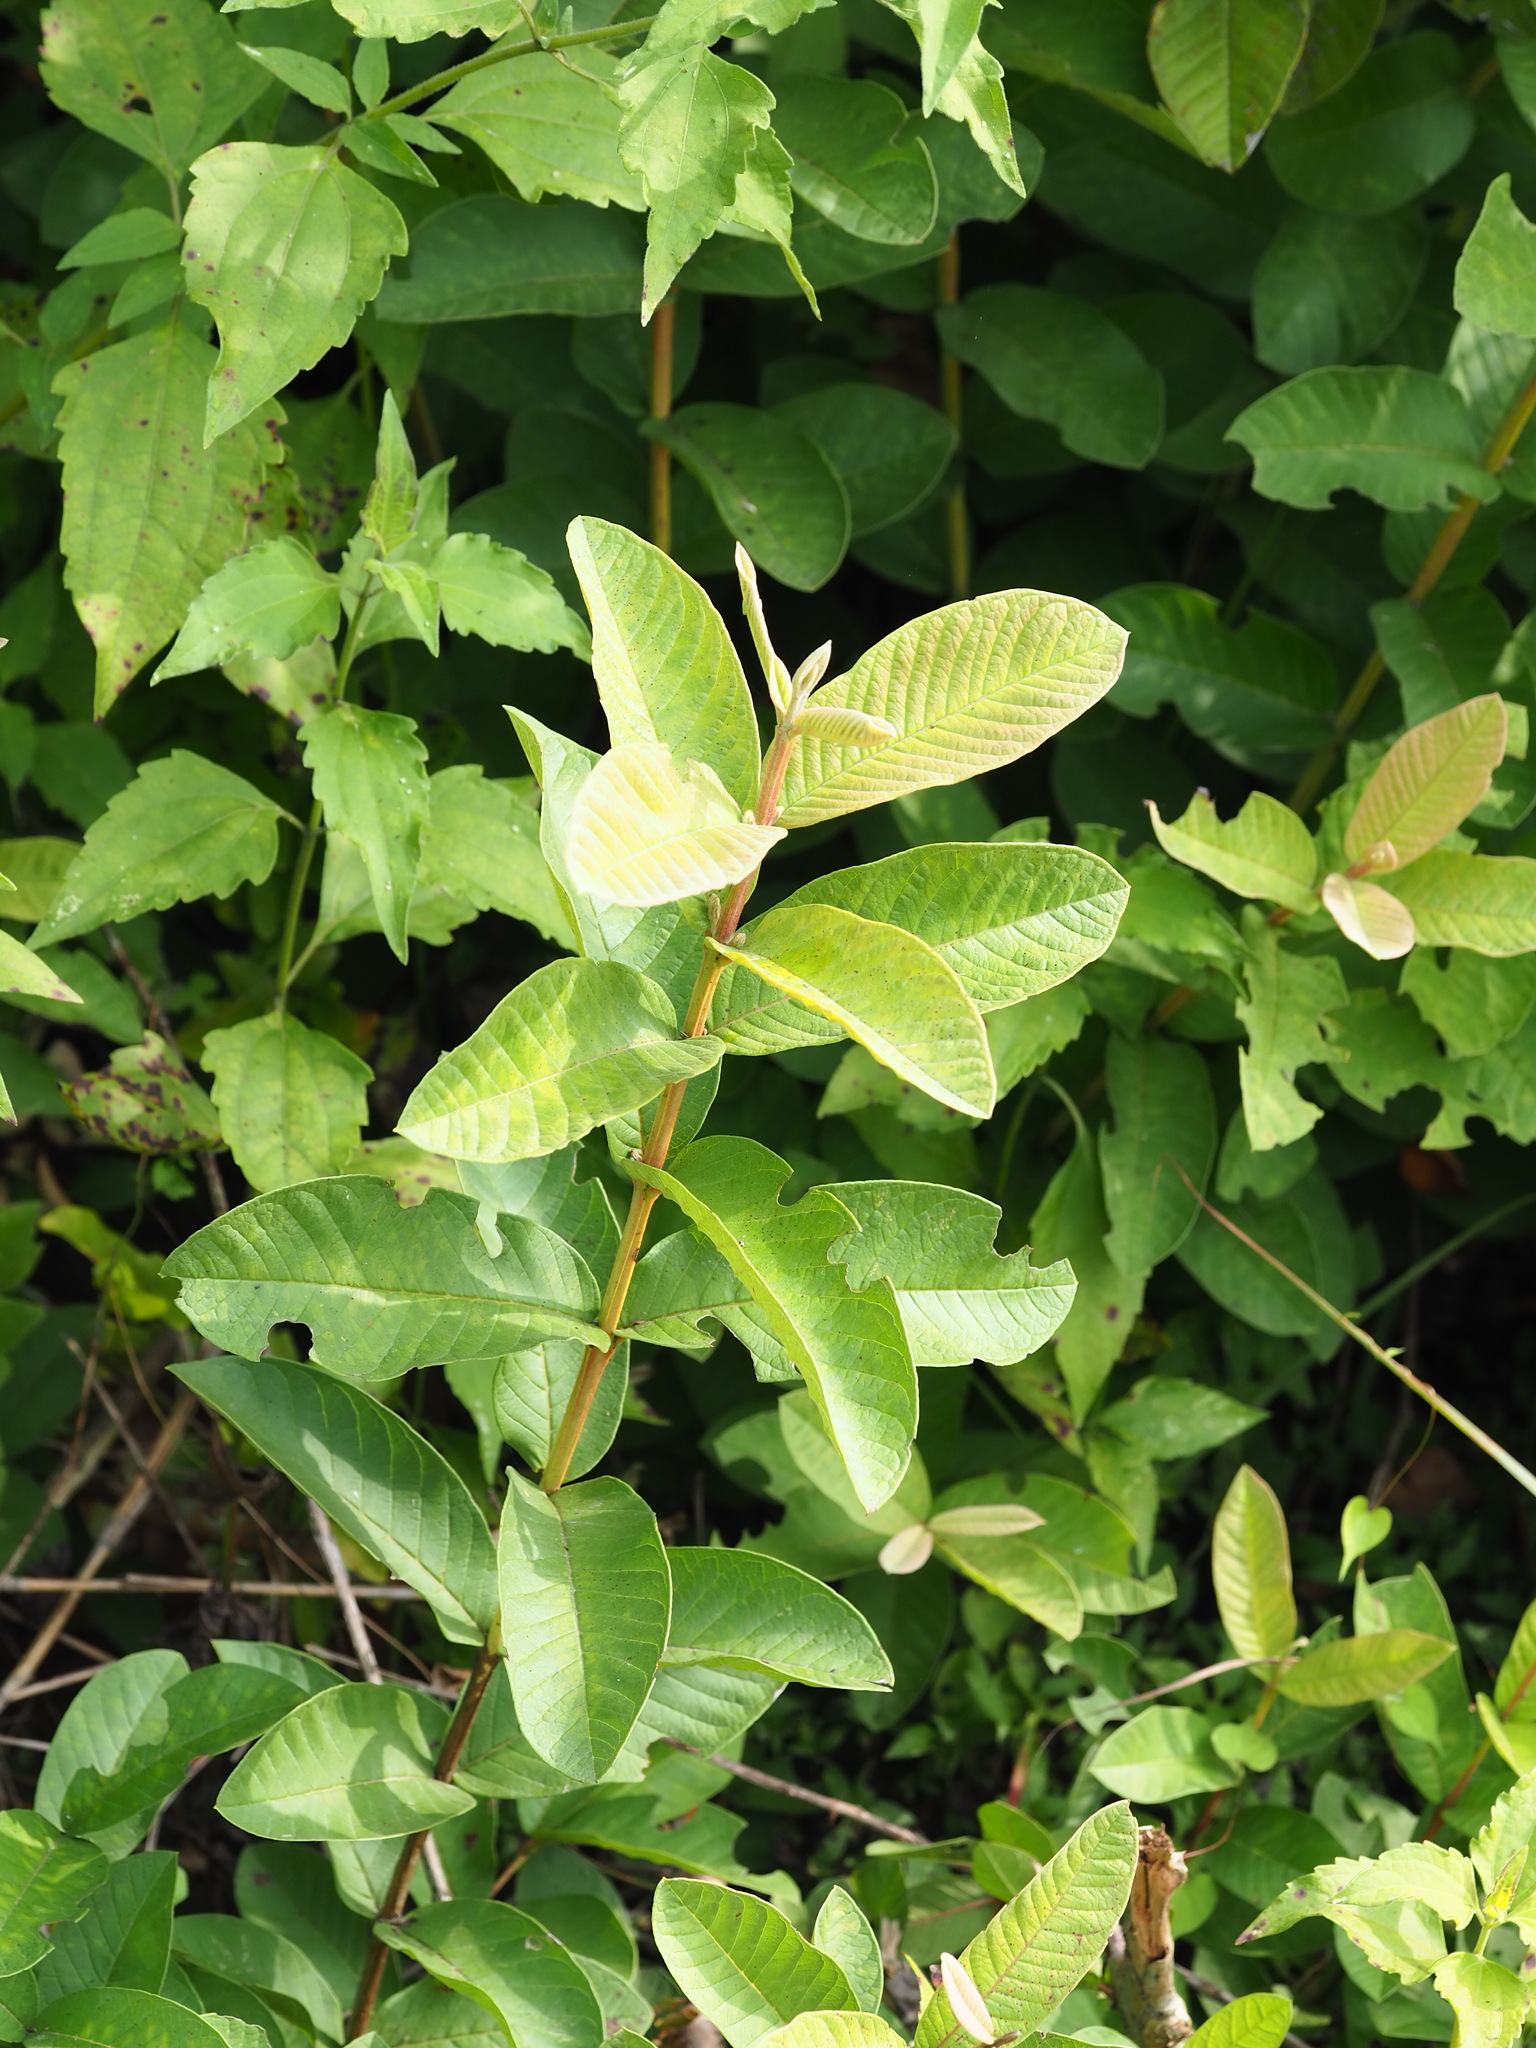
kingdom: Plantae
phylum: Tracheophyta
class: Magnoliopsida
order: Myrtales
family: Myrtaceae
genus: Psidium
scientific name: Psidium guajava
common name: Guava
